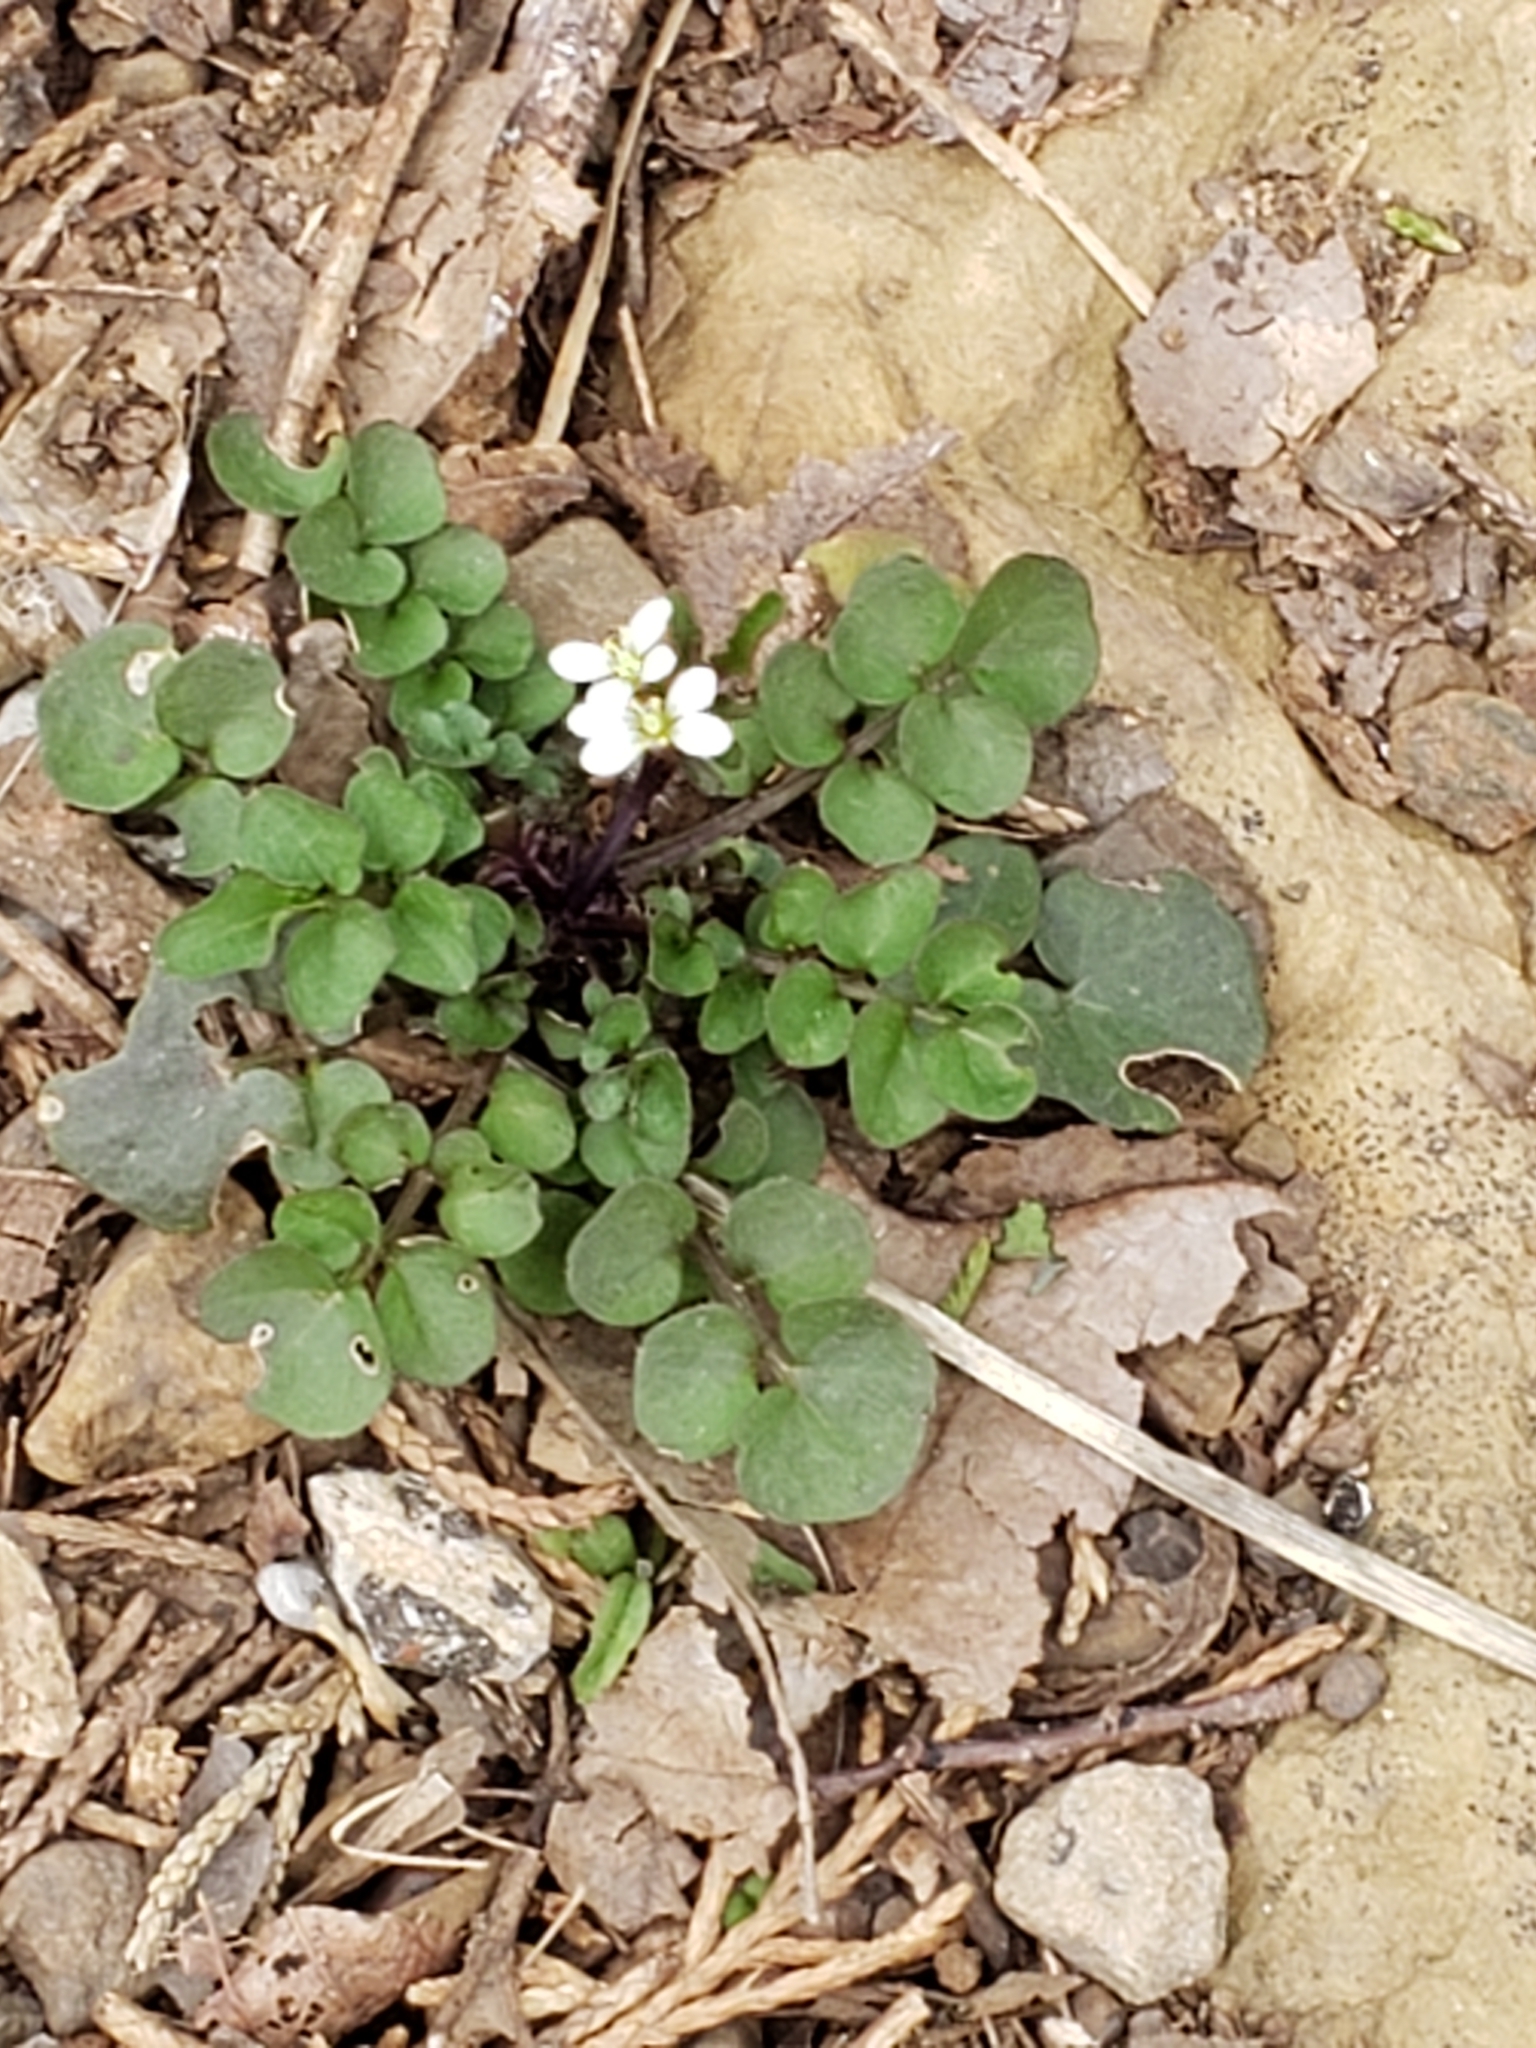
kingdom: Plantae
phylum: Tracheophyta
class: Magnoliopsida
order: Brassicales
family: Brassicaceae
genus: Cardamine
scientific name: Cardamine hirsuta
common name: Hairy bittercress
